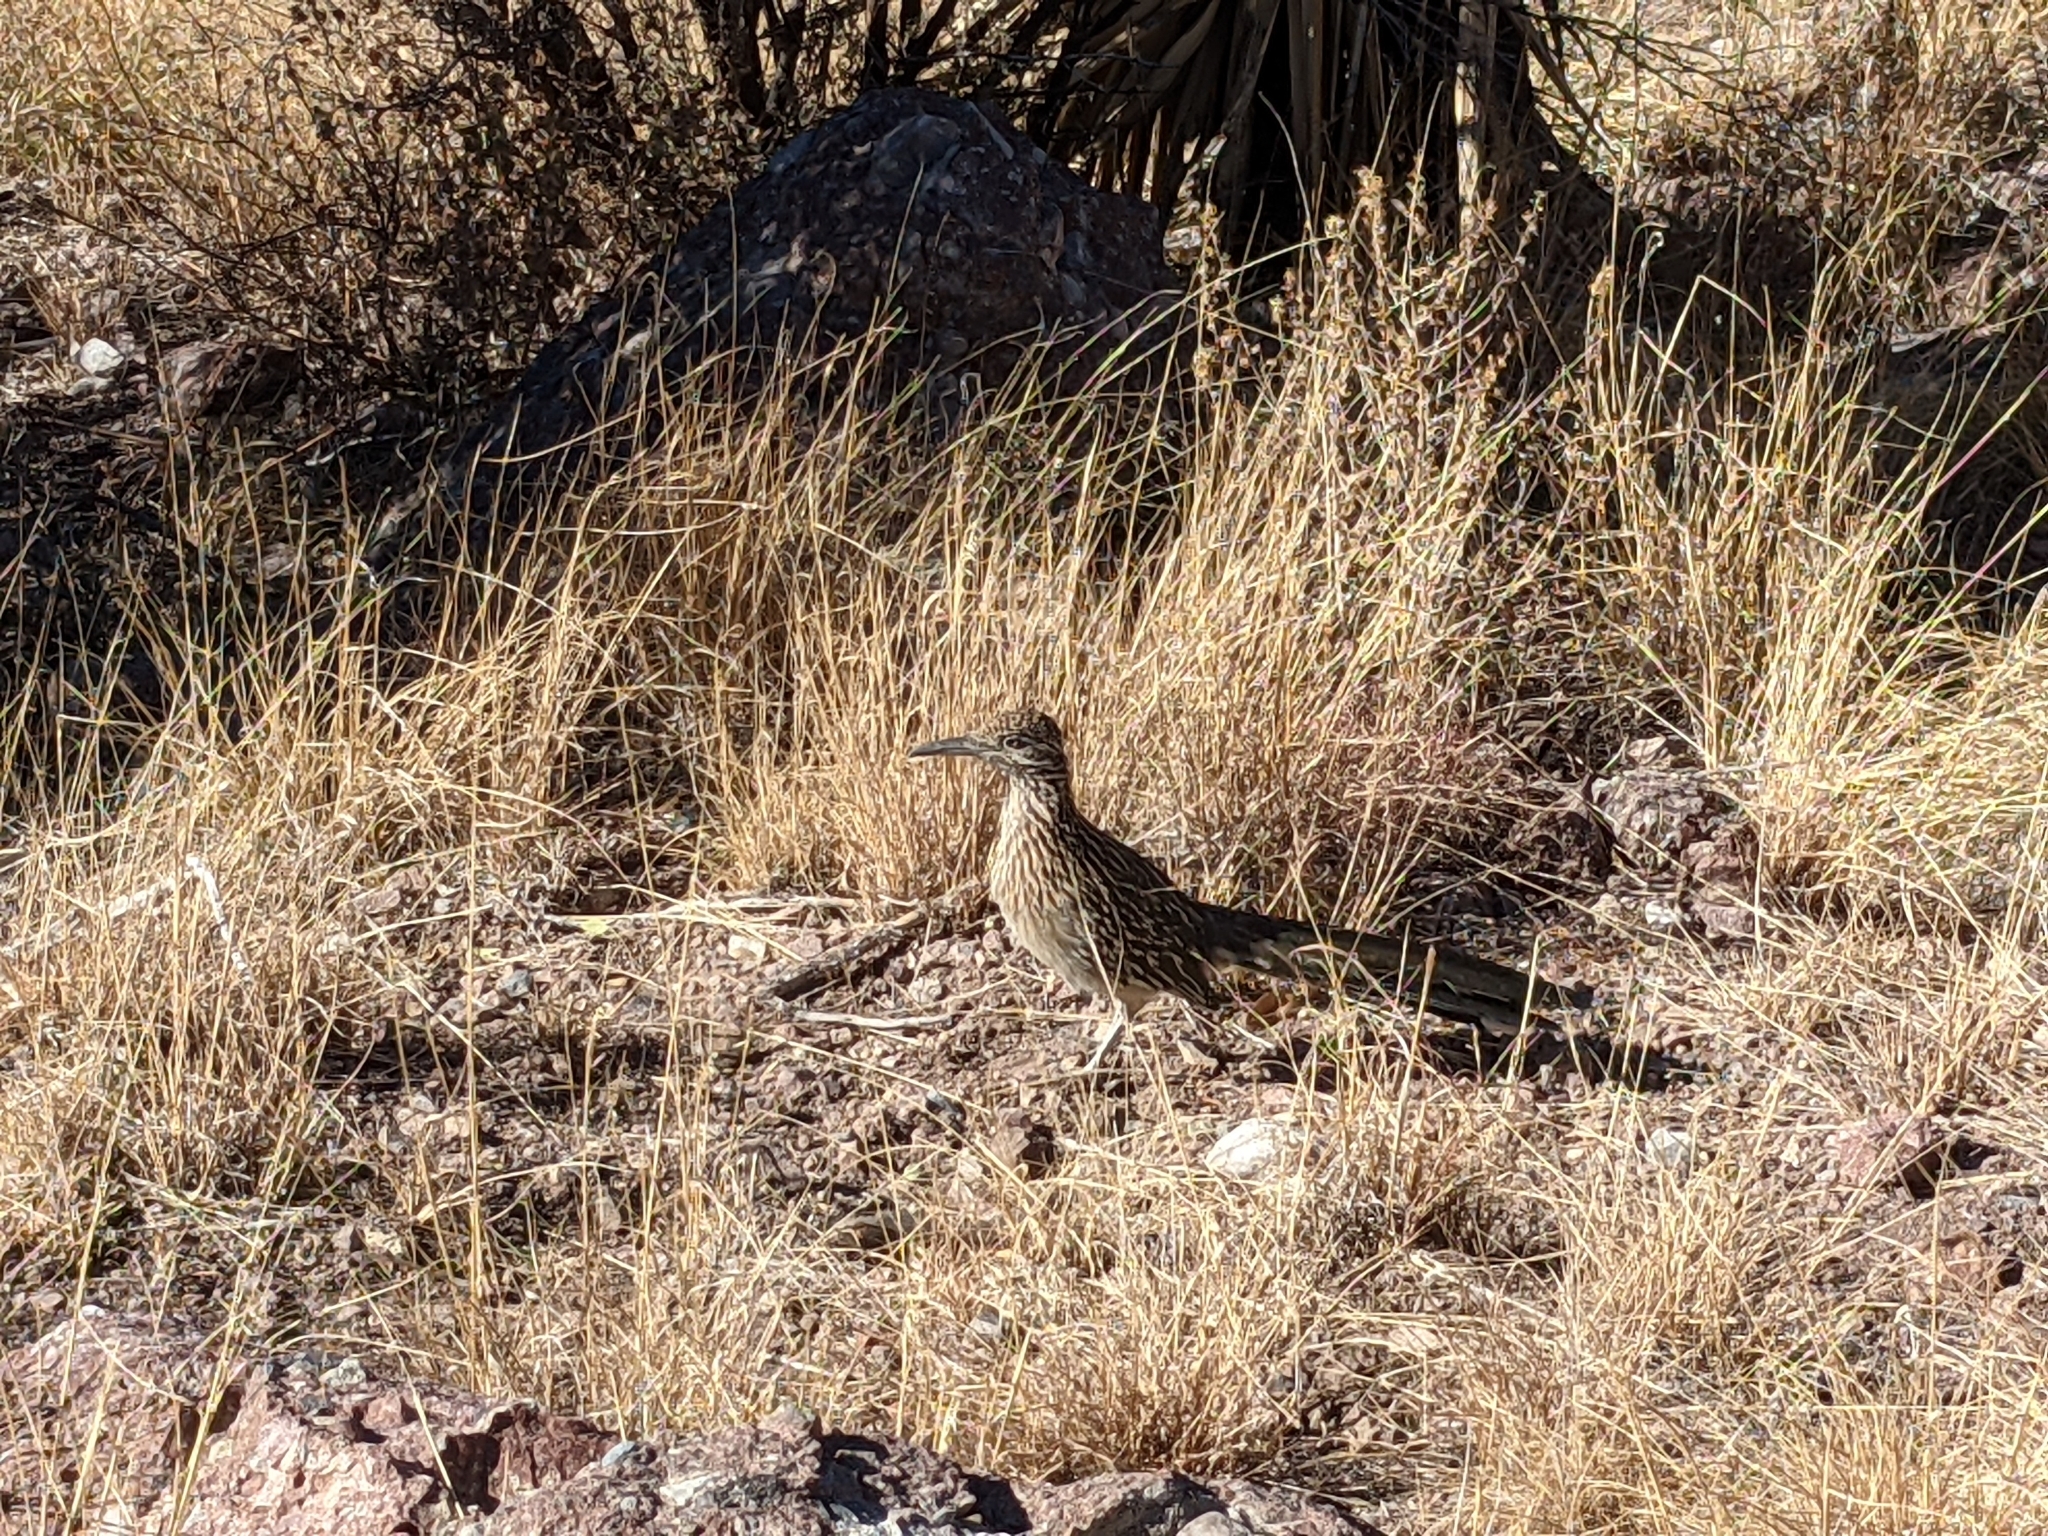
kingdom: Animalia
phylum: Chordata
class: Aves
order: Cuculiformes
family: Cuculidae
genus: Geococcyx
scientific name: Geococcyx californianus
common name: Greater roadrunner
